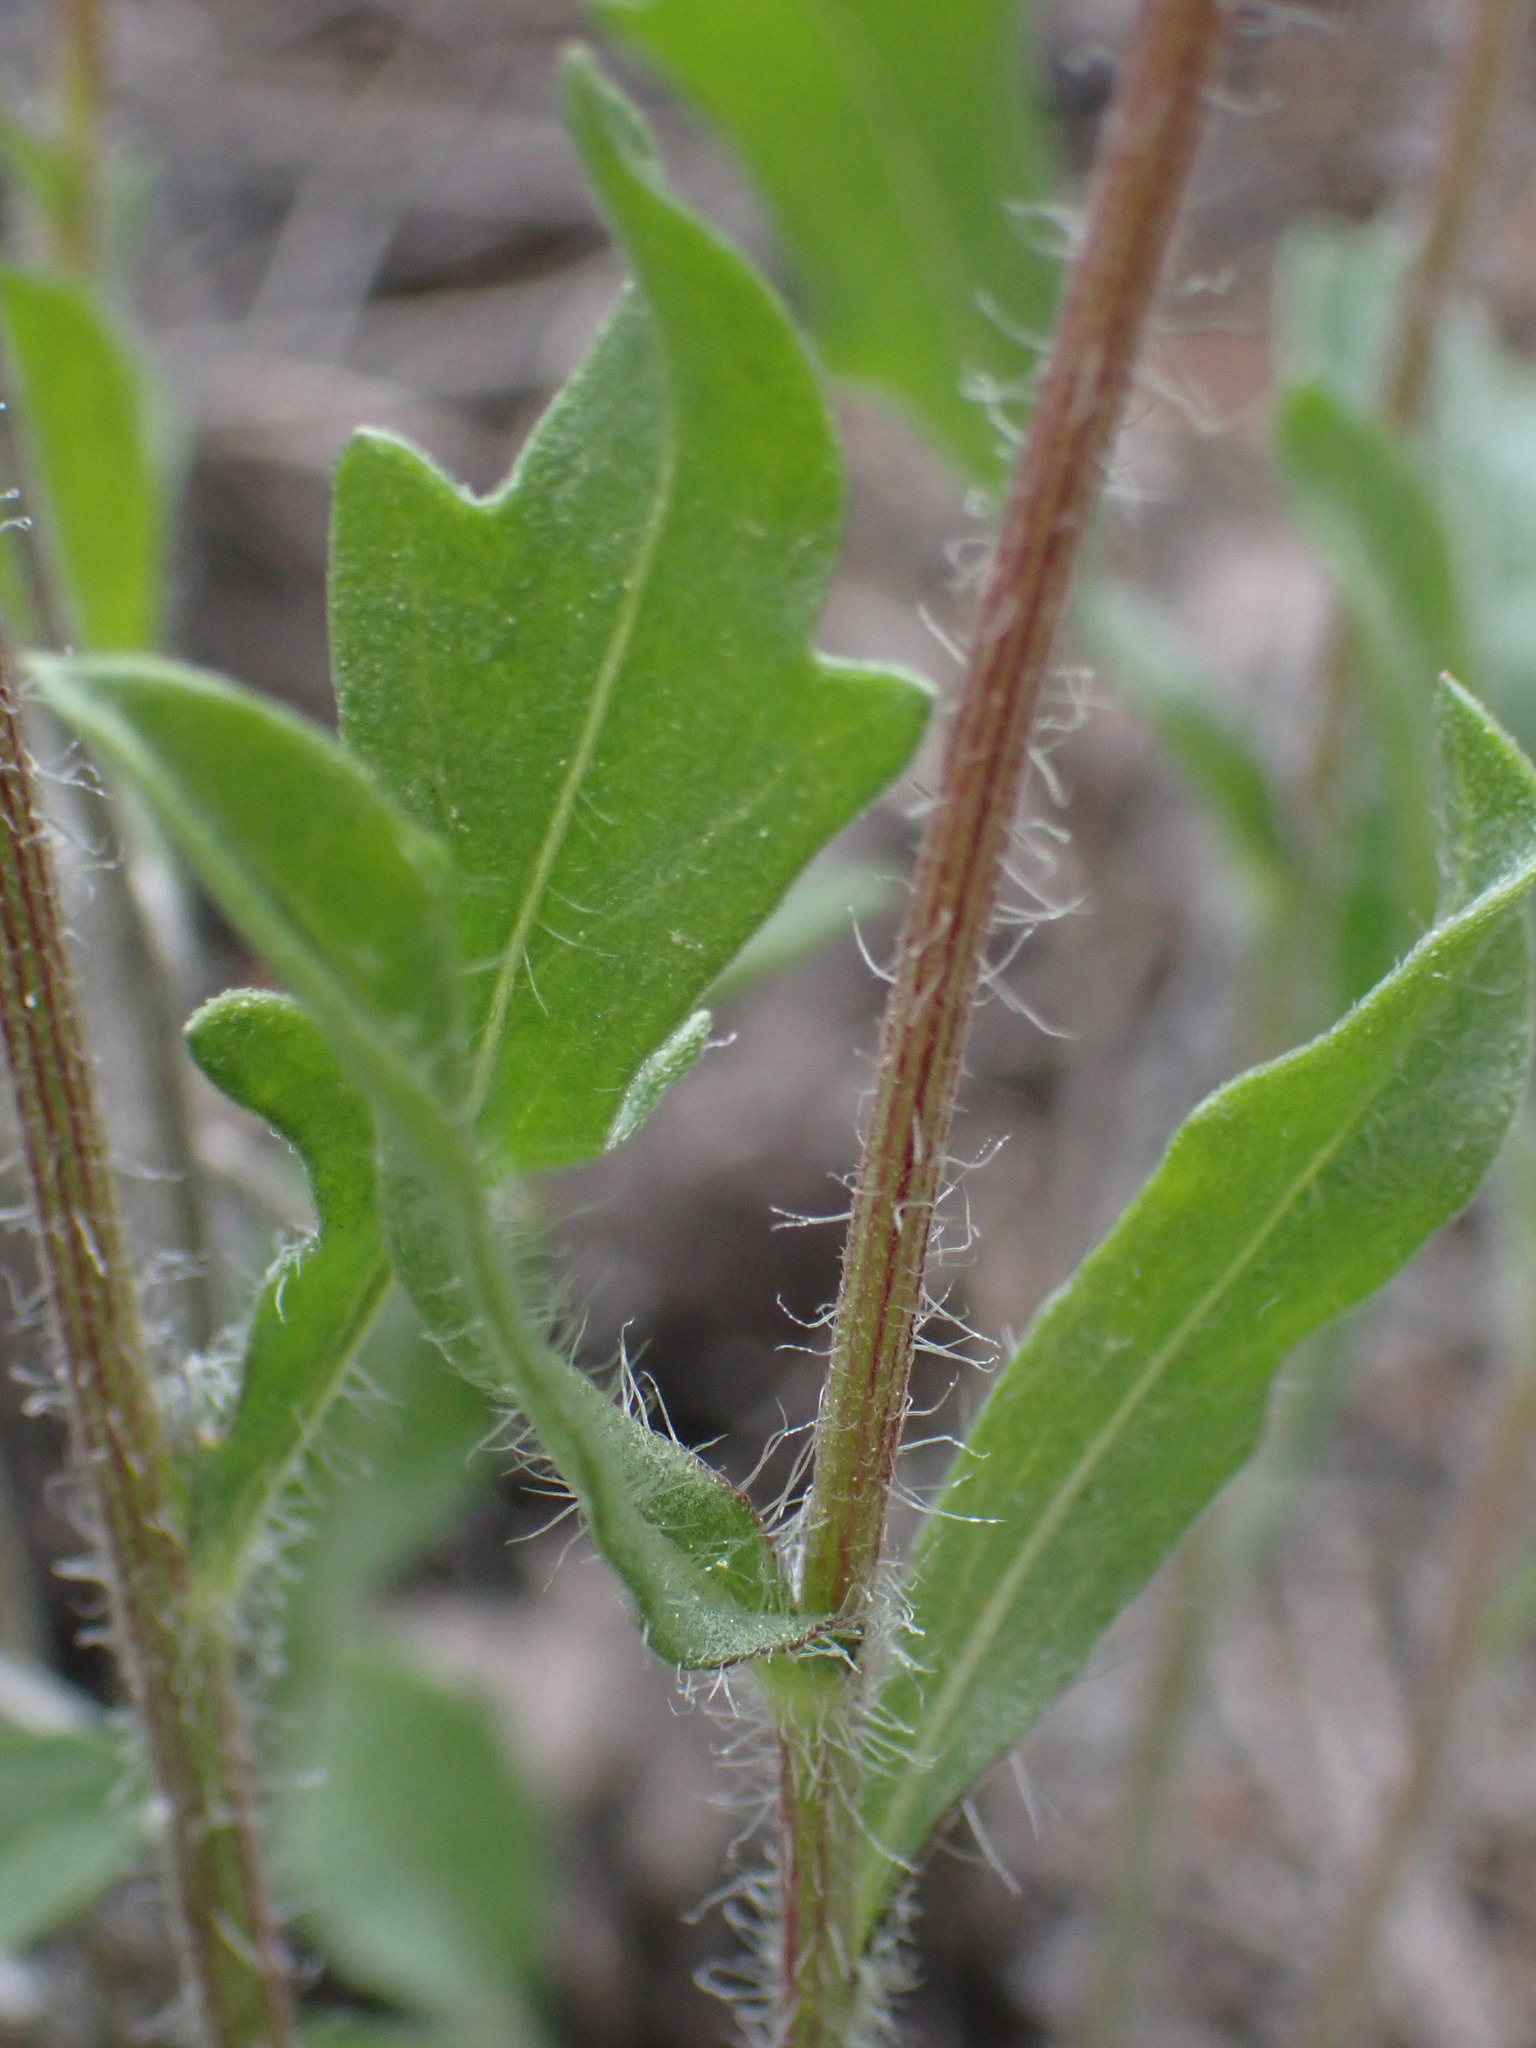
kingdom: Plantae
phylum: Tracheophyta
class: Magnoliopsida
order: Asterales
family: Asteraceae
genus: Gaillardia
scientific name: Gaillardia aristata
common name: Blanket-flower
